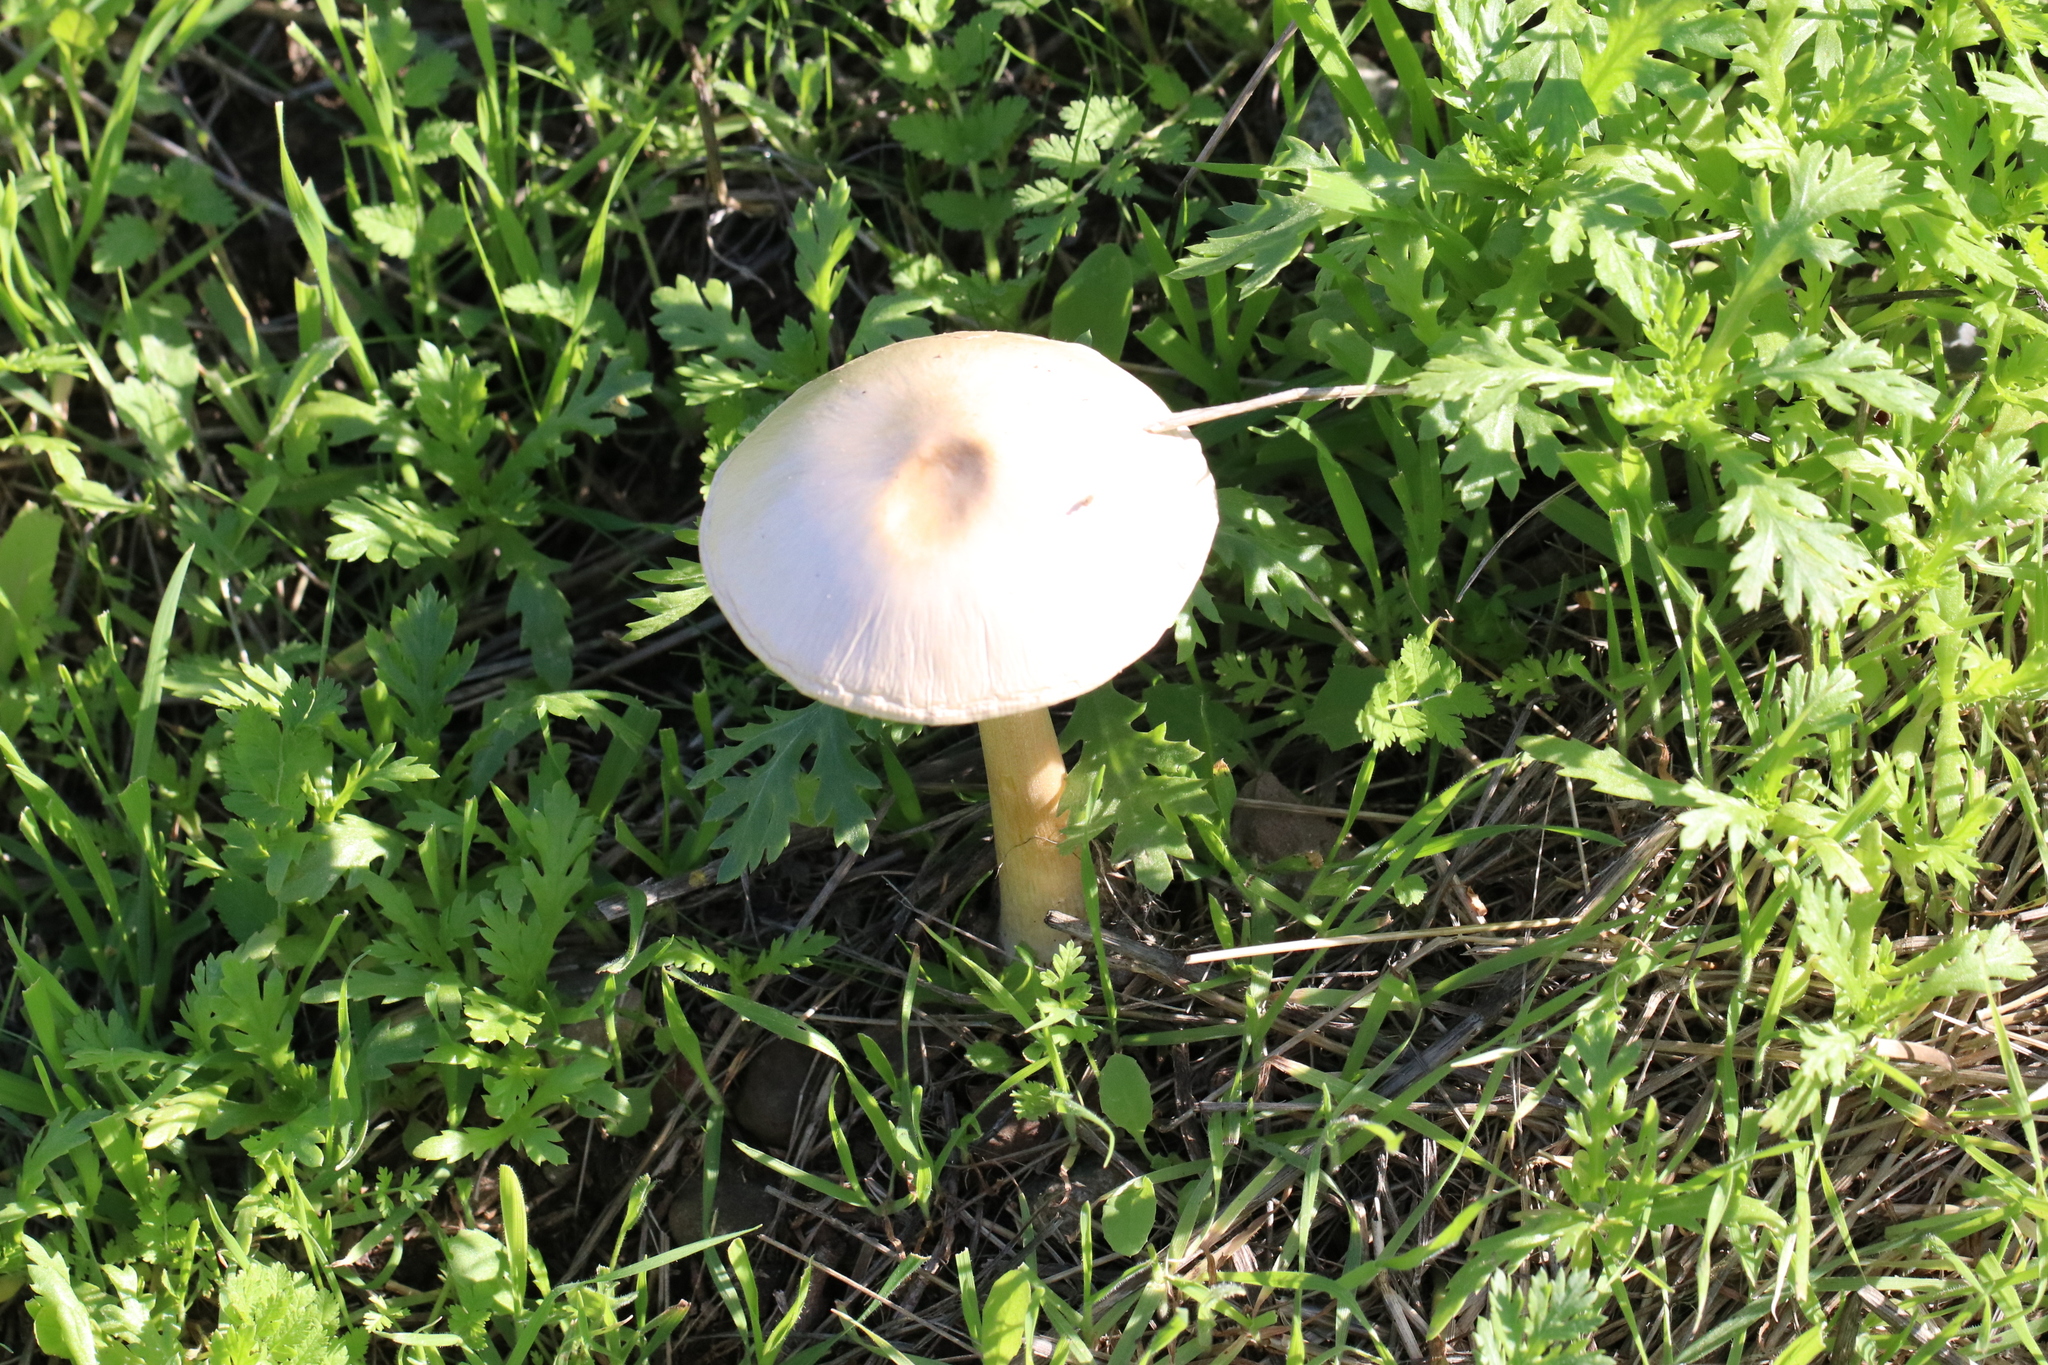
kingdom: Fungi
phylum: Basidiomycota
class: Agaricomycetes
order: Agaricales
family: Pluteaceae
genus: Volvopluteus
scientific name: Volvopluteus gloiocephalus
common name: Stubble rosegill
